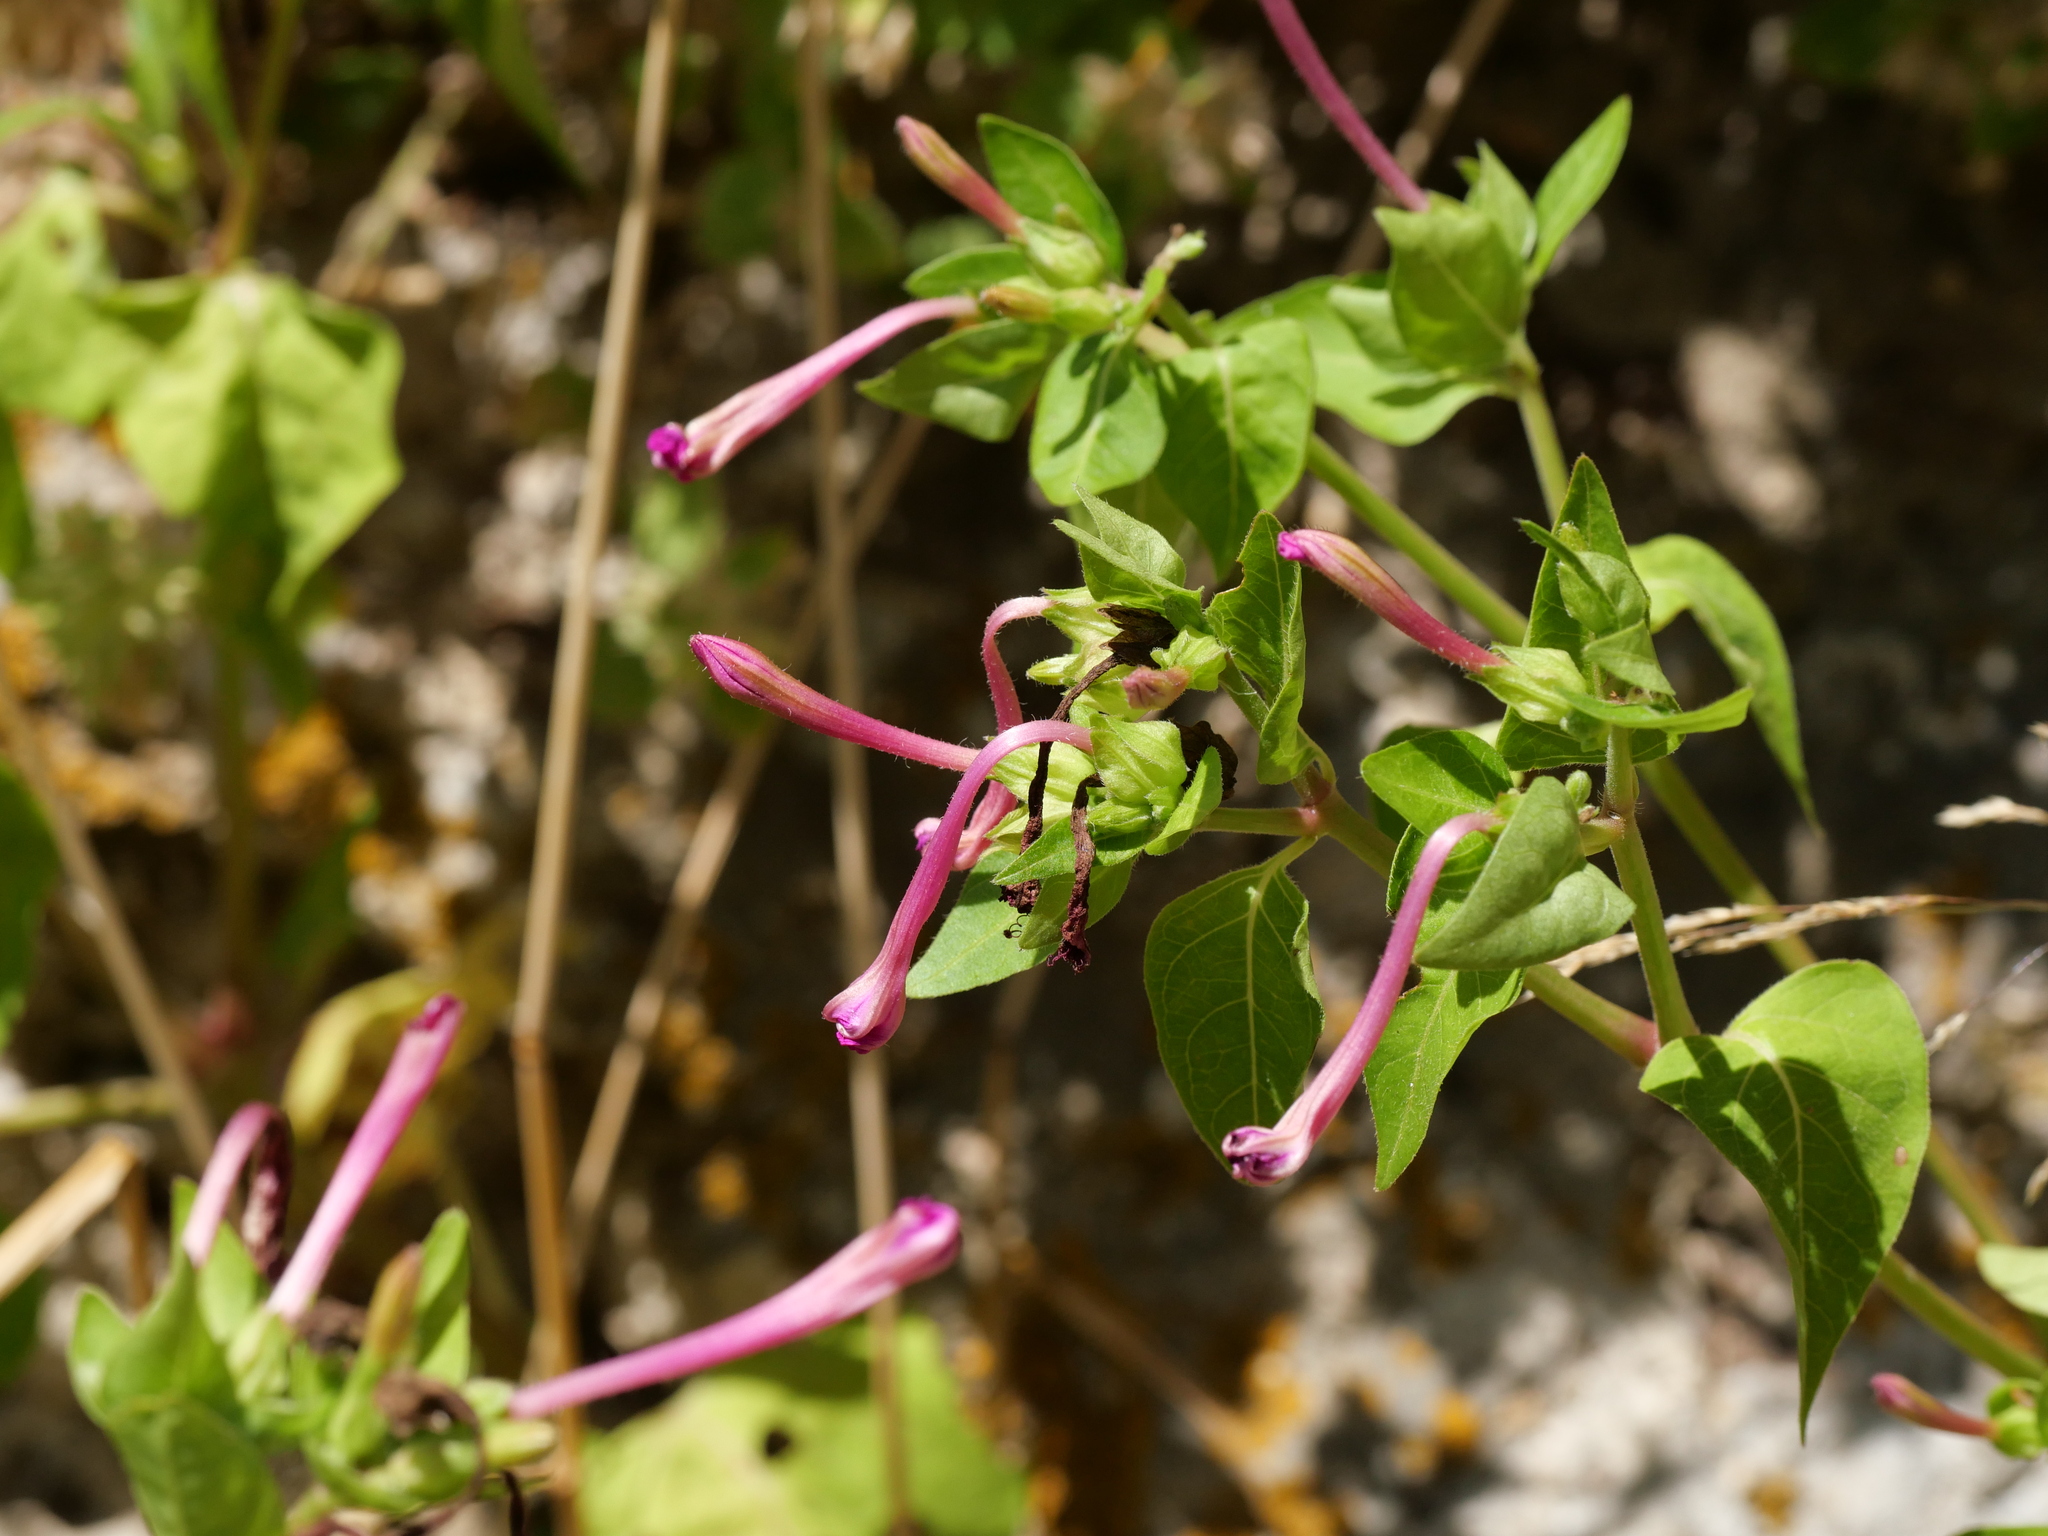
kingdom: Plantae
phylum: Tracheophyta
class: Magnoliopsida
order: Caryophyllales
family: Nyctaginaceae
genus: Mirabilis
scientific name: Mirabilis jalapa
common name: Marvel-of-peru
